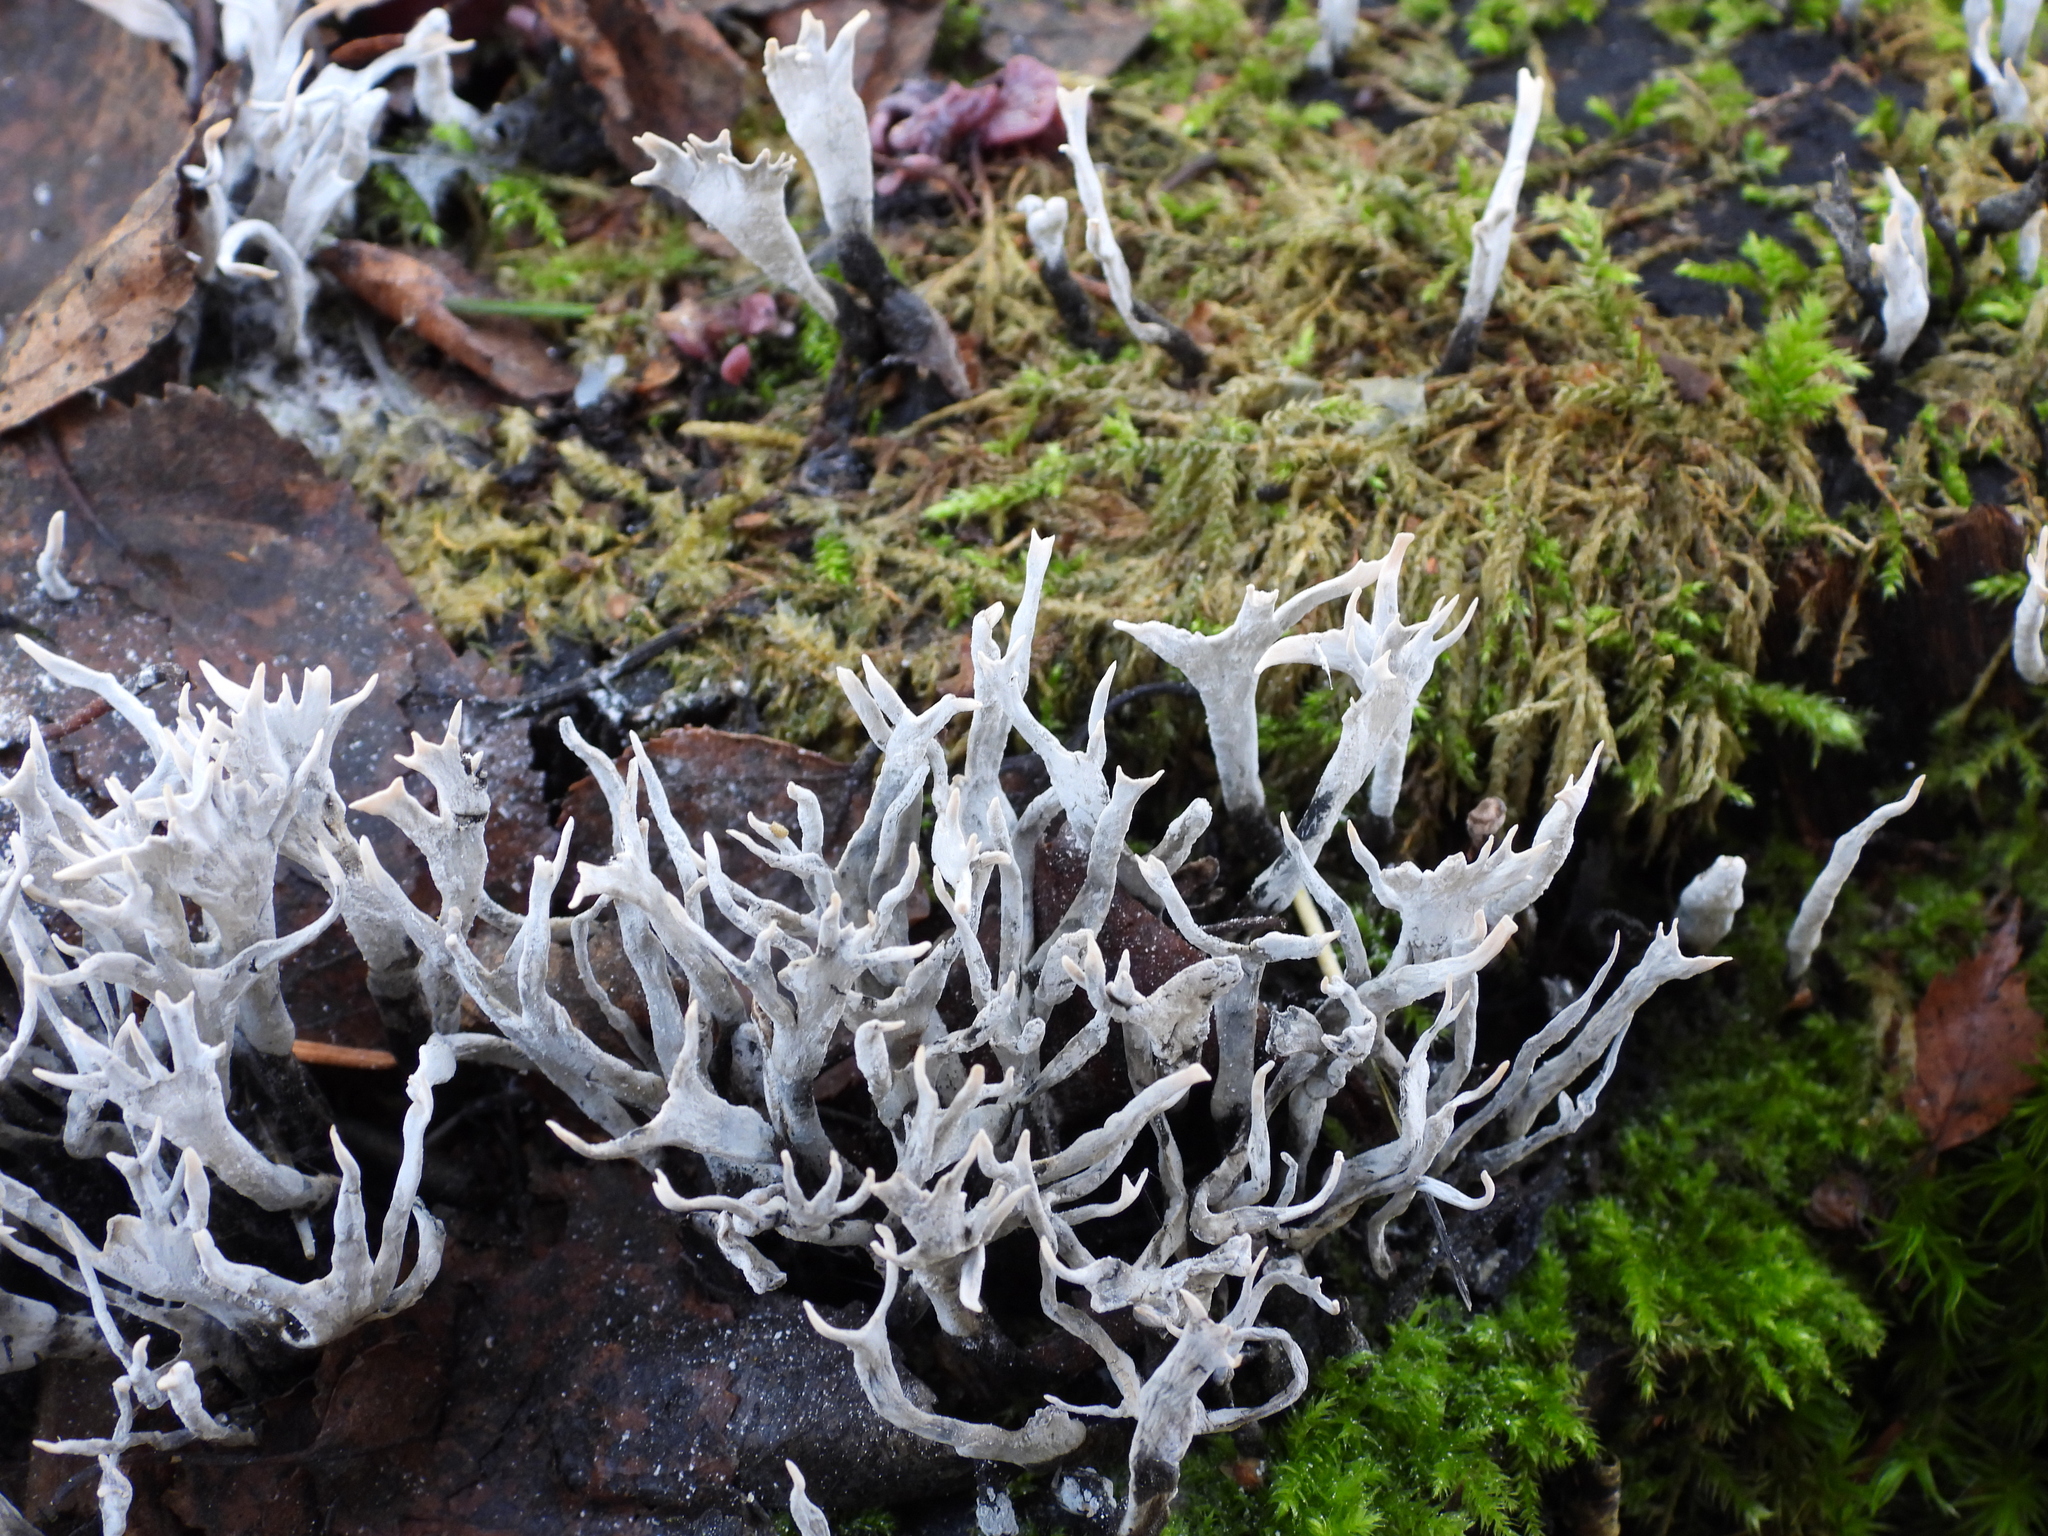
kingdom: Fungi
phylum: Ascomycota
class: Sordariomycetes
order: Xylariales
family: Xylariaceae
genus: Xylaria
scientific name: Xylaria hypoxylon
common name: Candle-snuff fungus
